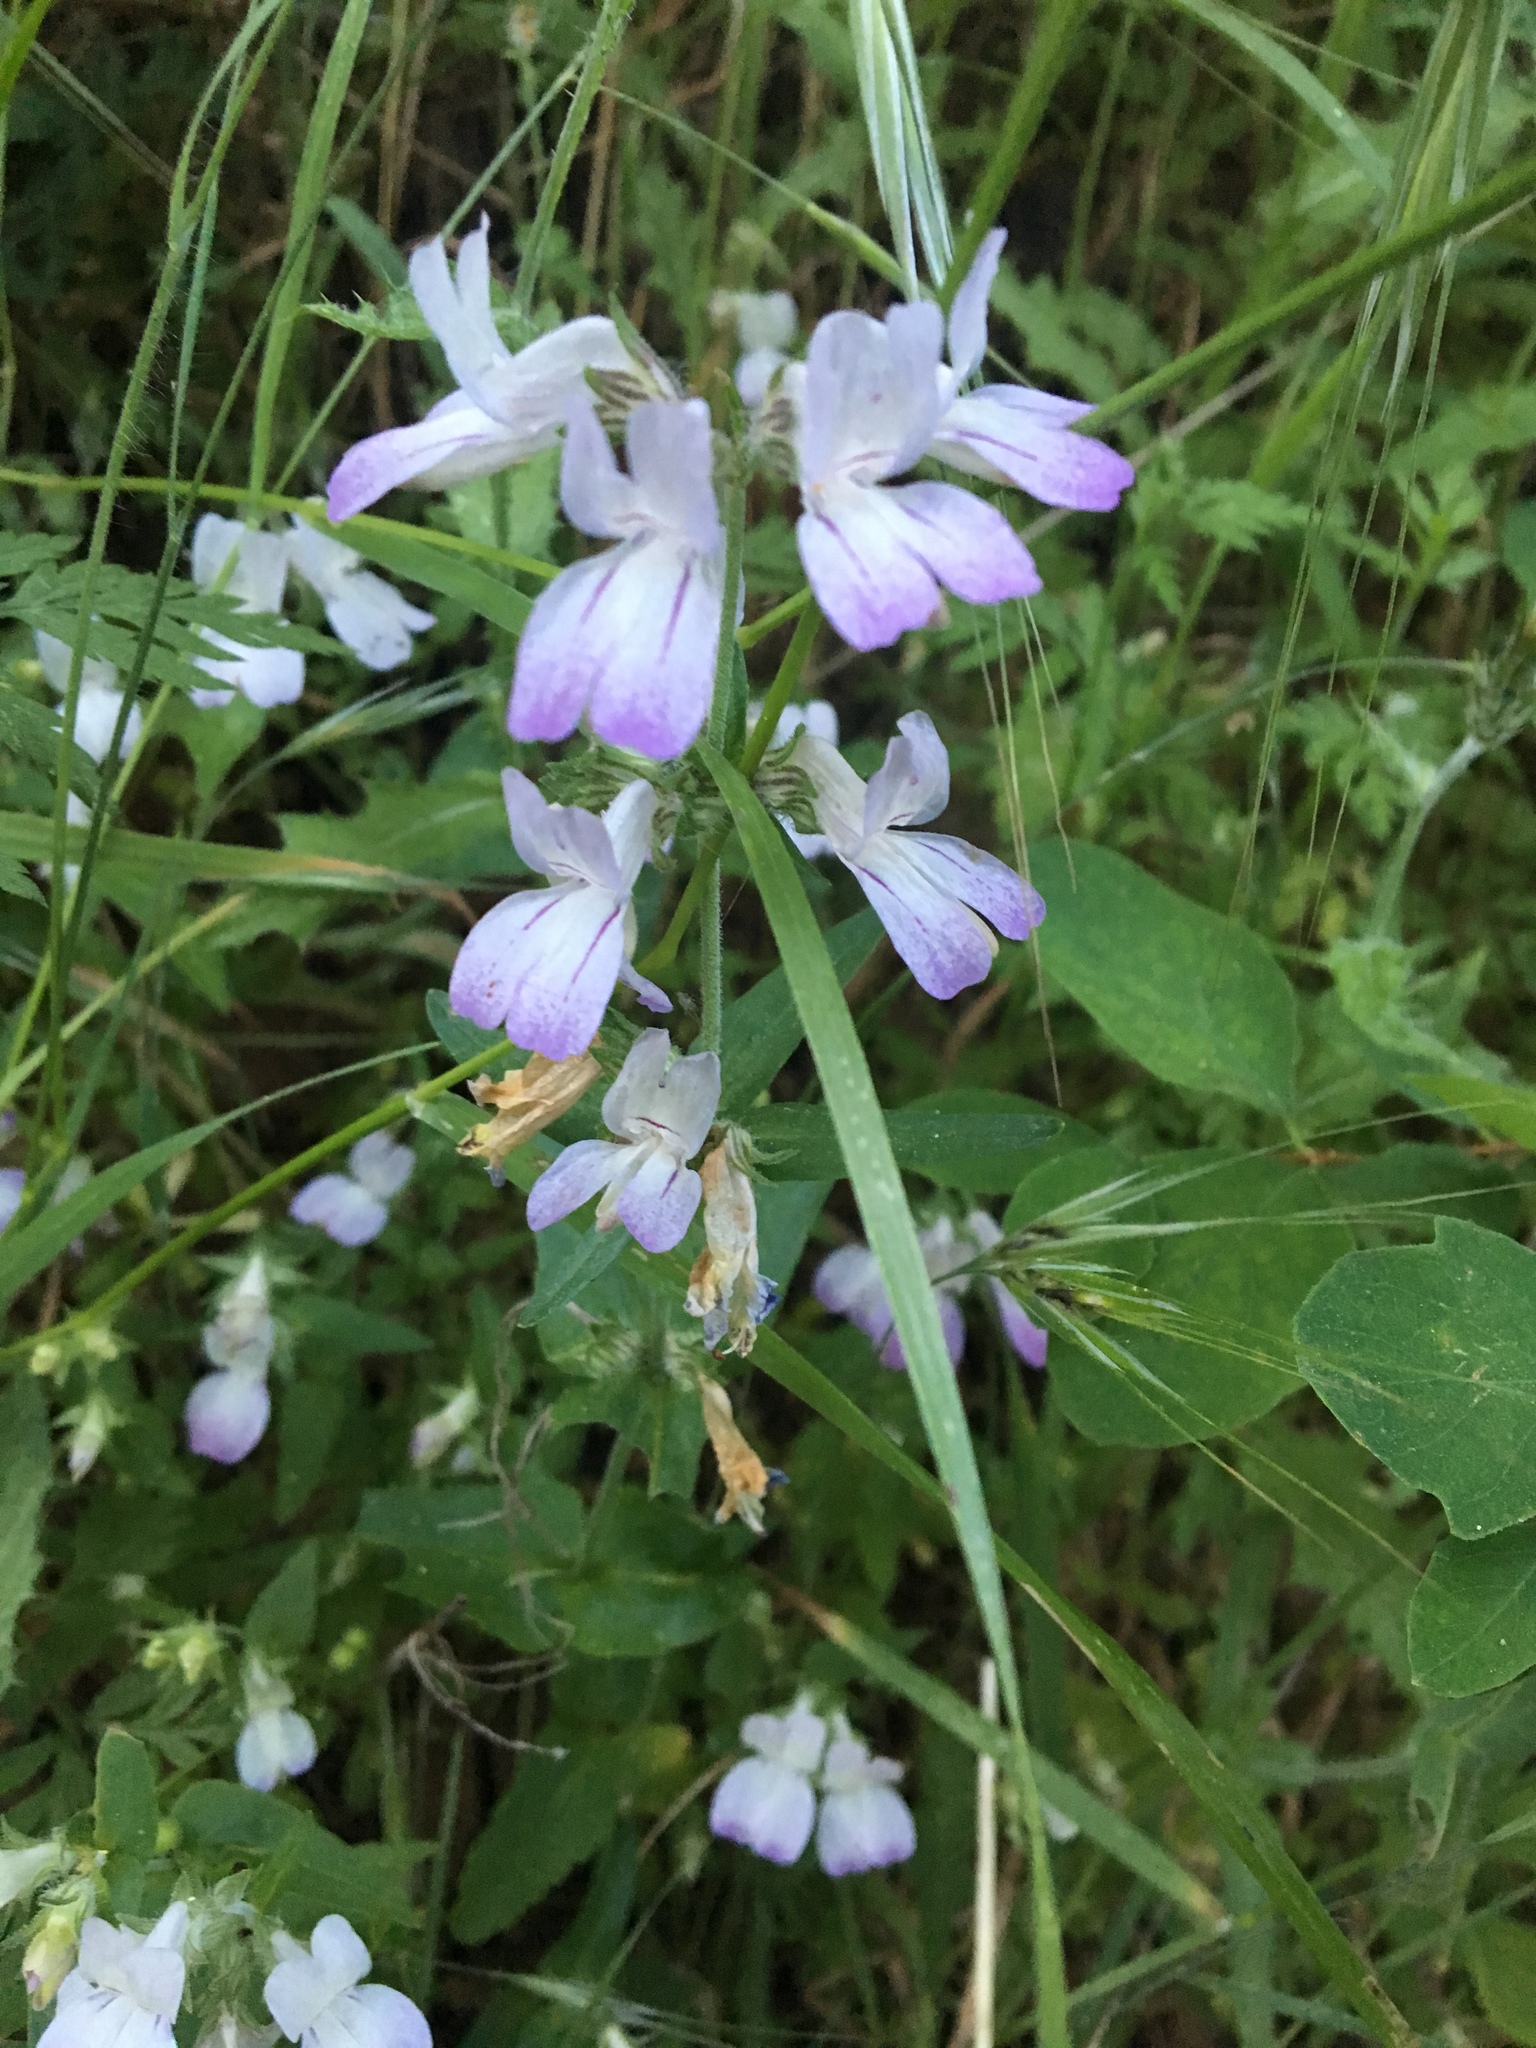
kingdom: Plantae
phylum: Tracheophyta
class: Magnoliopsida
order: Lamiales
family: Plantaginaceae
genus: Collinsia
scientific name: Collinsia heterophylla
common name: Chinese-houses
